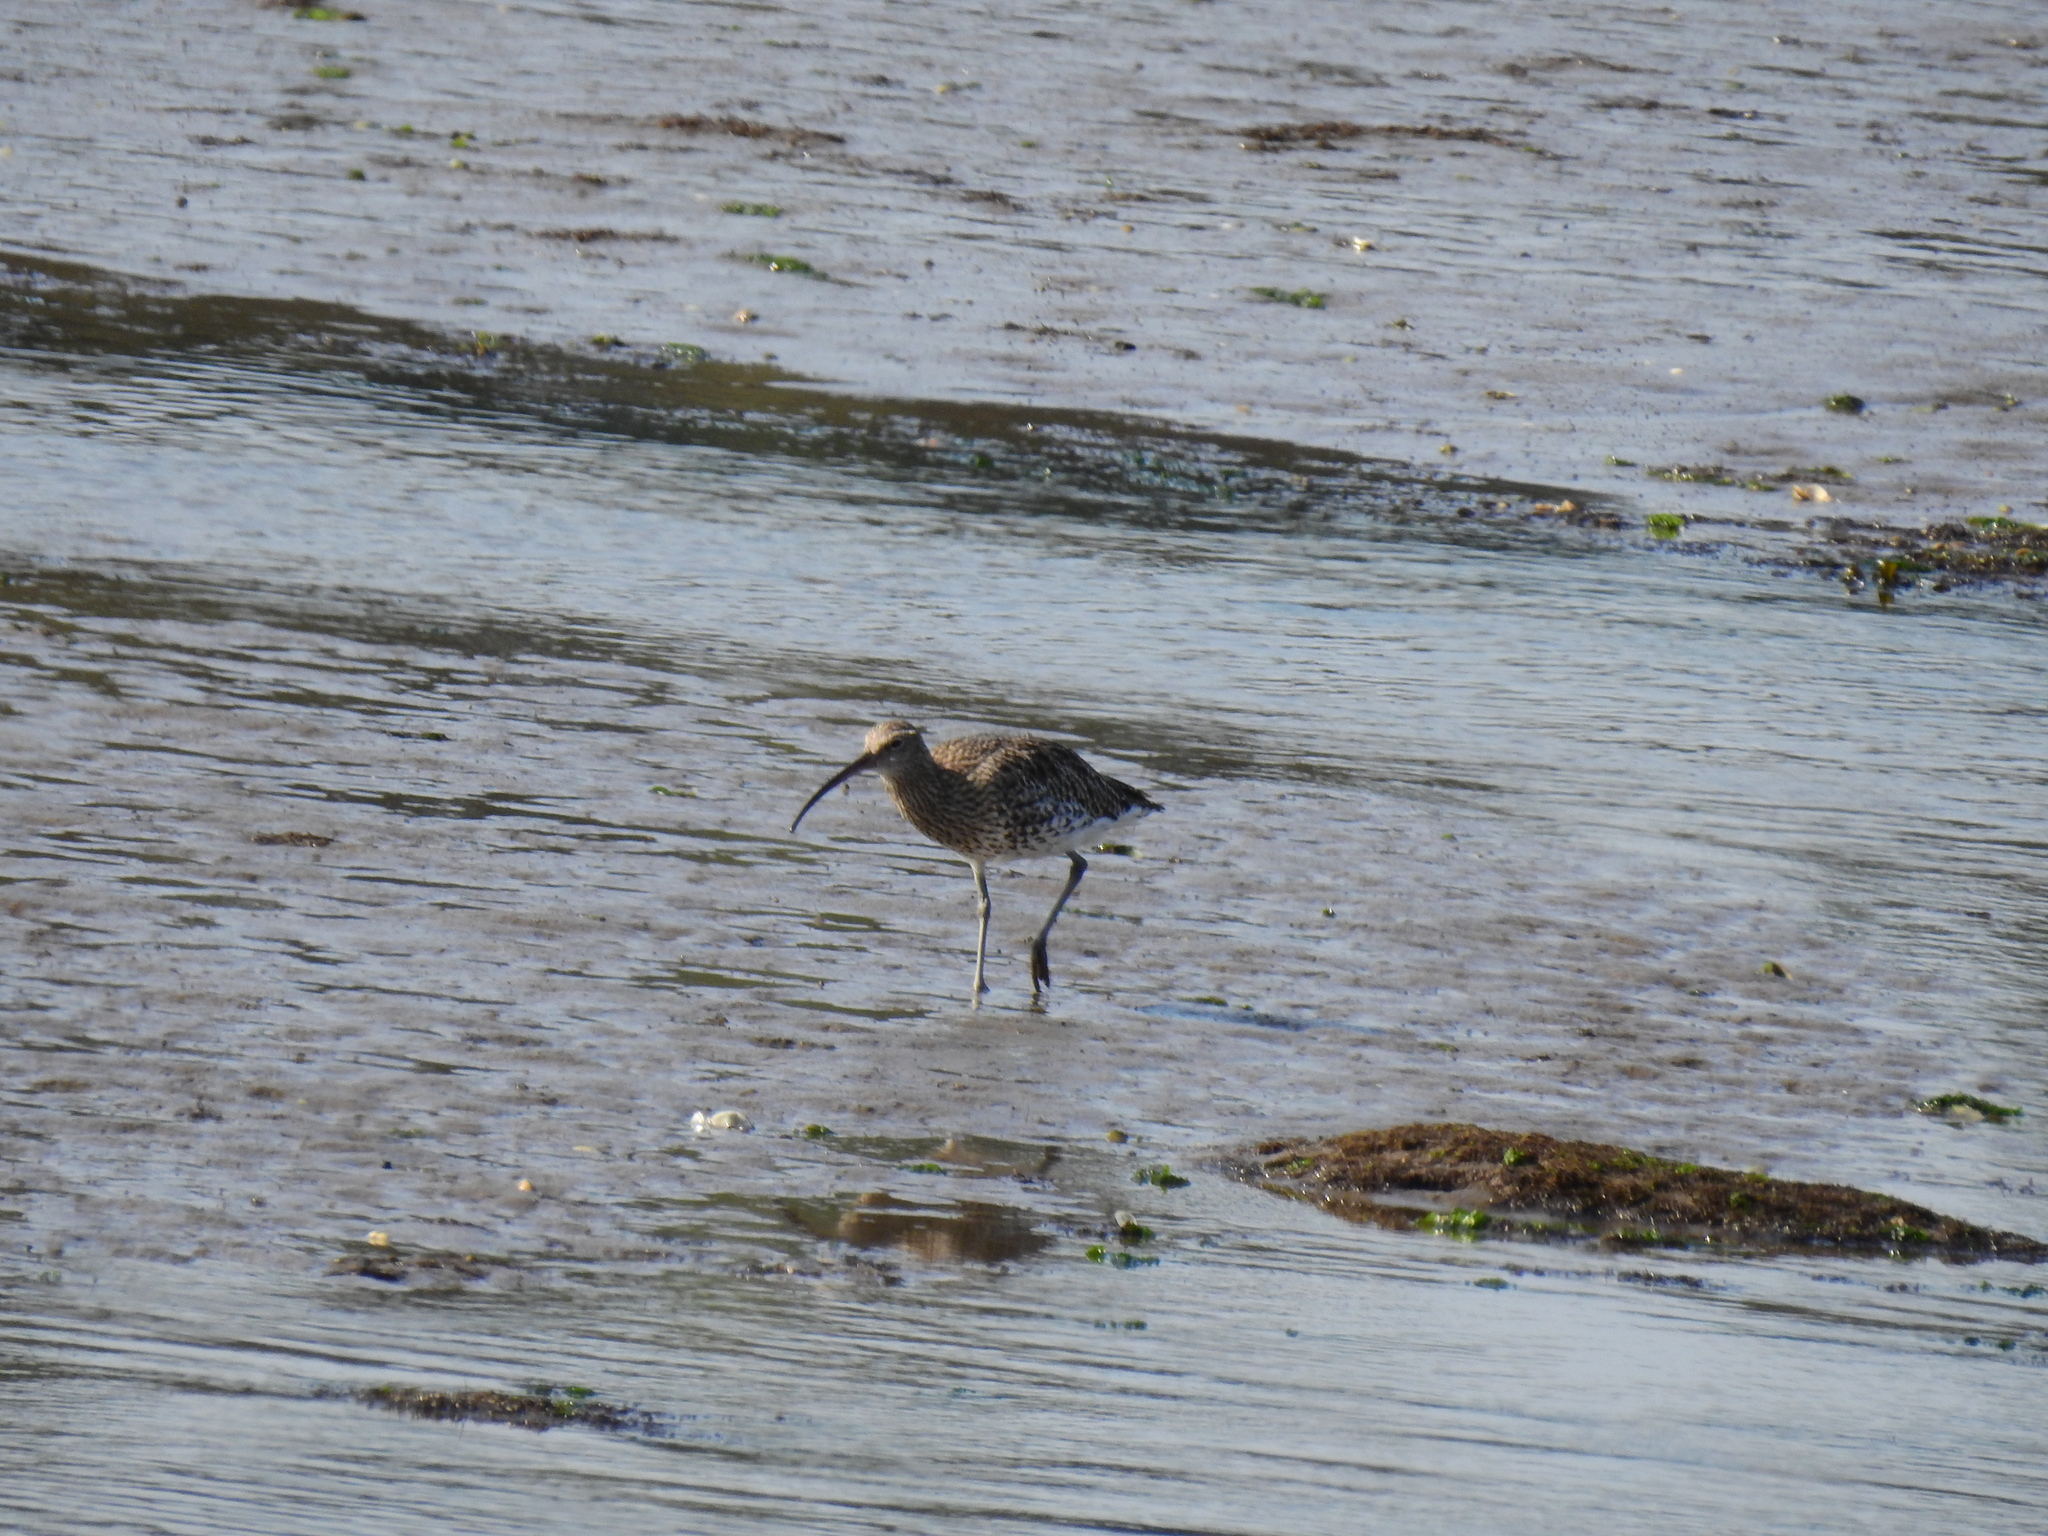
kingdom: Animalia
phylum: Chordata
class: Aves
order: Charadriiformes
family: Scolopacidae
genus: Numenius
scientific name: Numenius arquata
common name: Eurasian curlew
